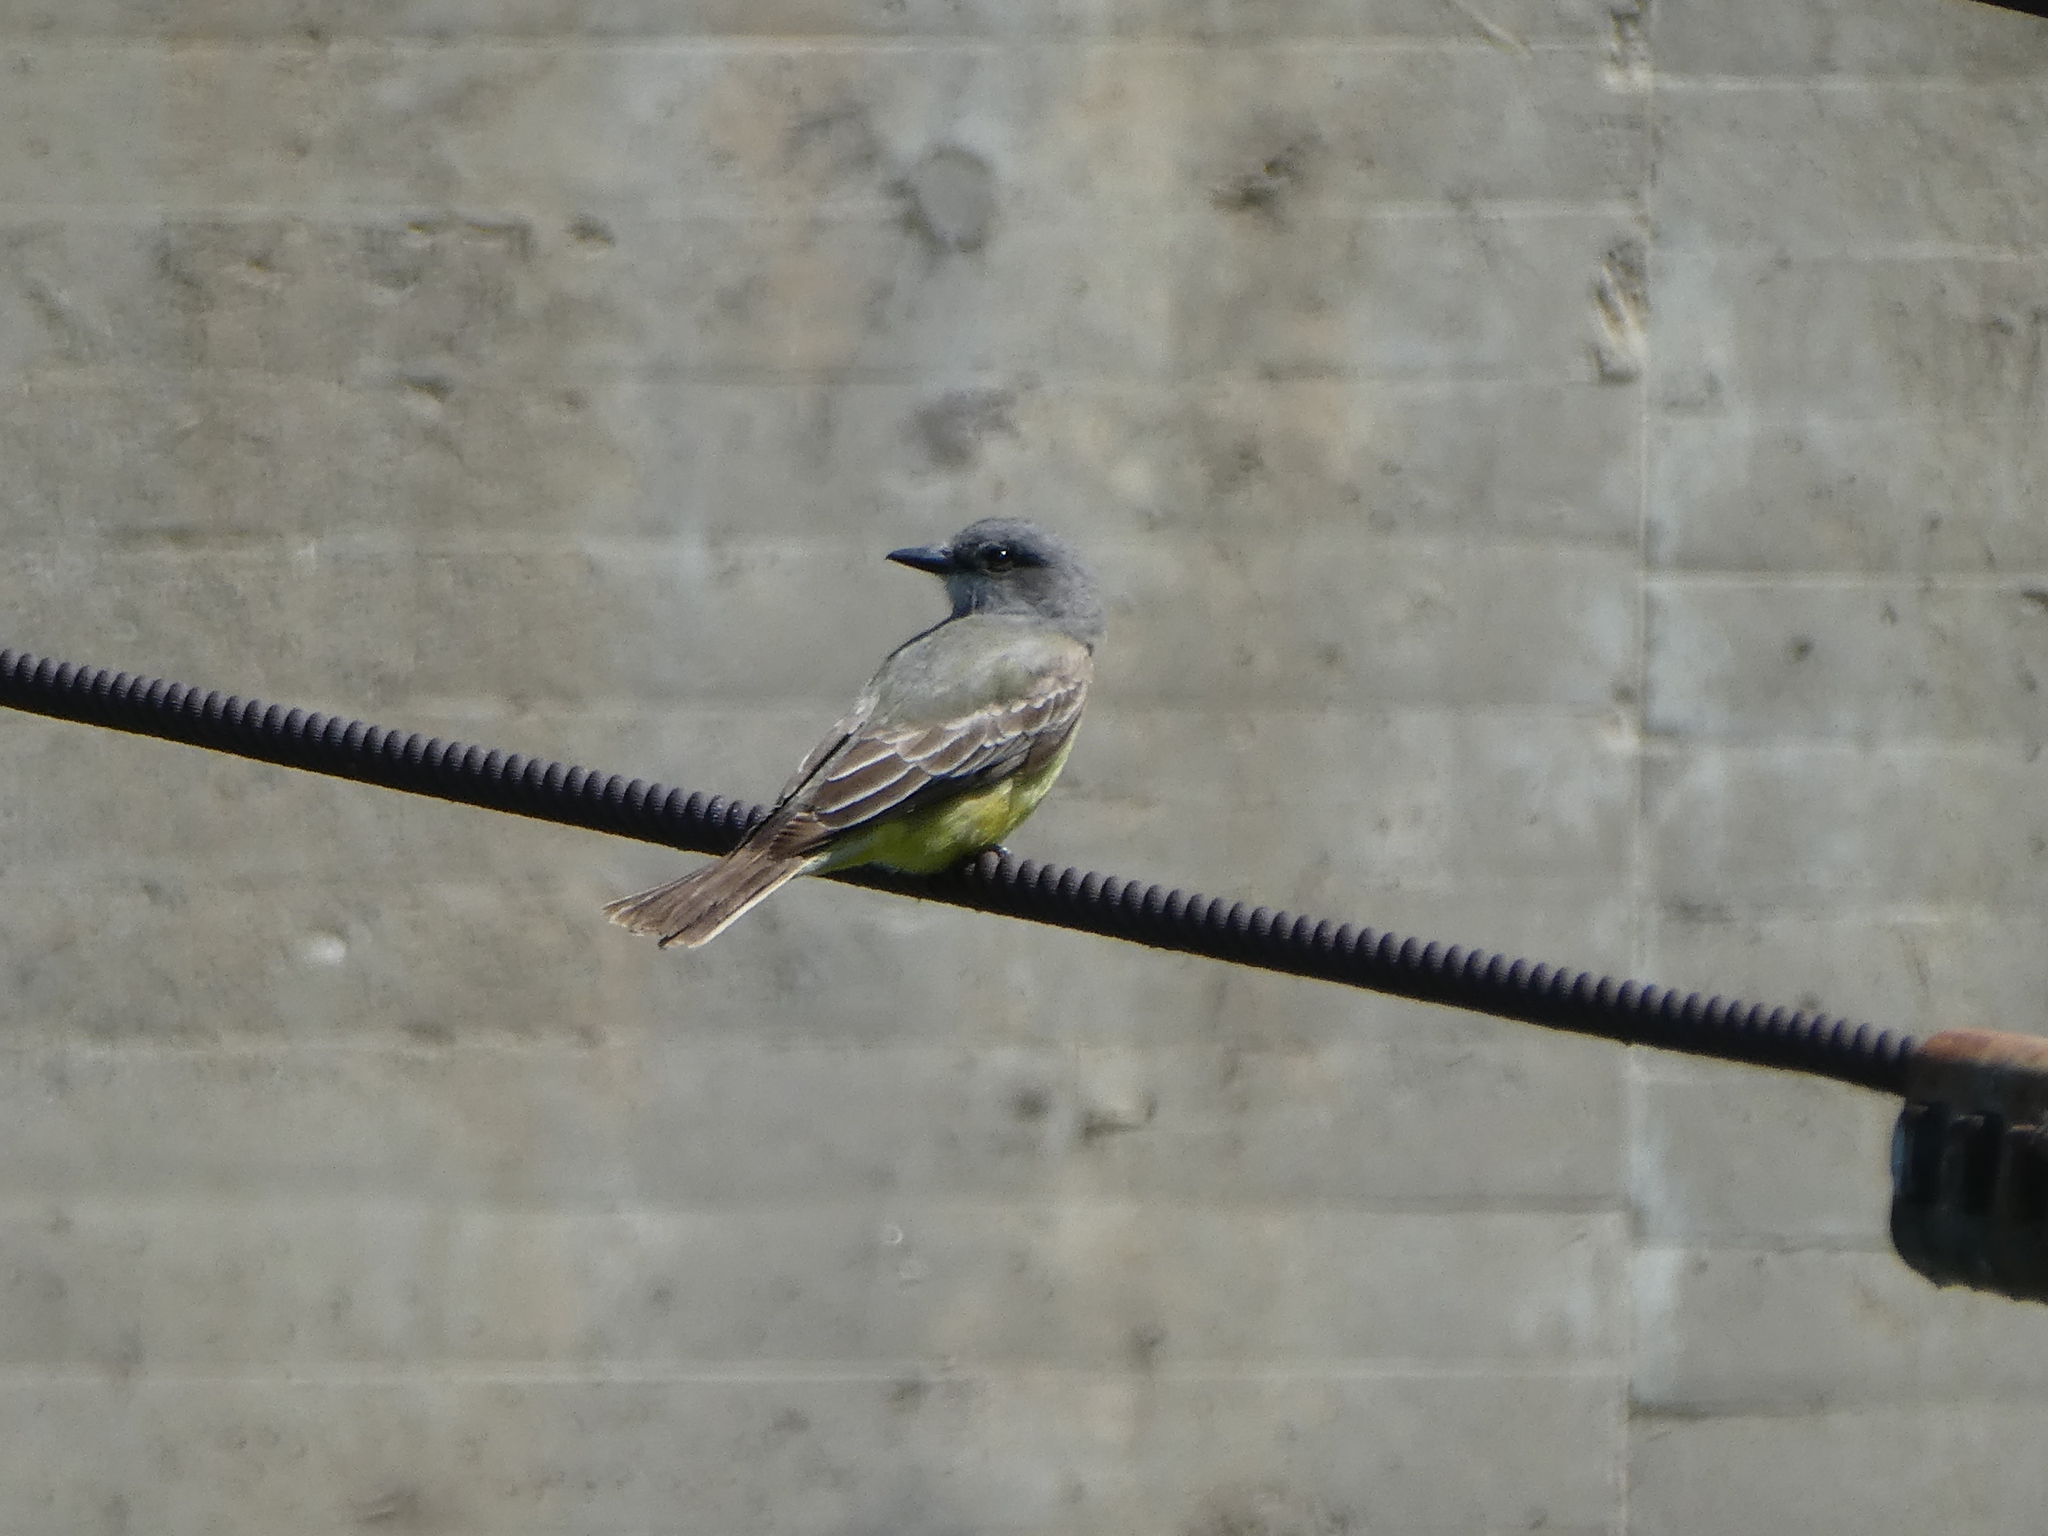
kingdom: Animalia
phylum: Chordata
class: Aves
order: Passeriformes
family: Tyrannidae
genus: Tyrannus
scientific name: Tyrannus verticalis
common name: Western kingbird
